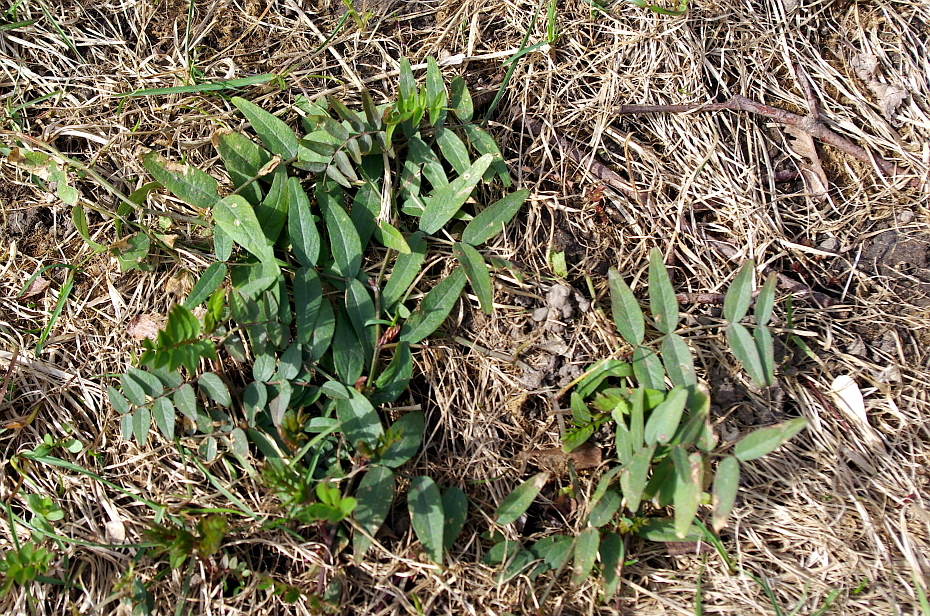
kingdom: Plantae
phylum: Tracheophyta
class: Magnoliopsida
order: Fabales
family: Fabaceae
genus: Lathyrus
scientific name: Lathyrus pratensis
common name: Meadow vetchling
